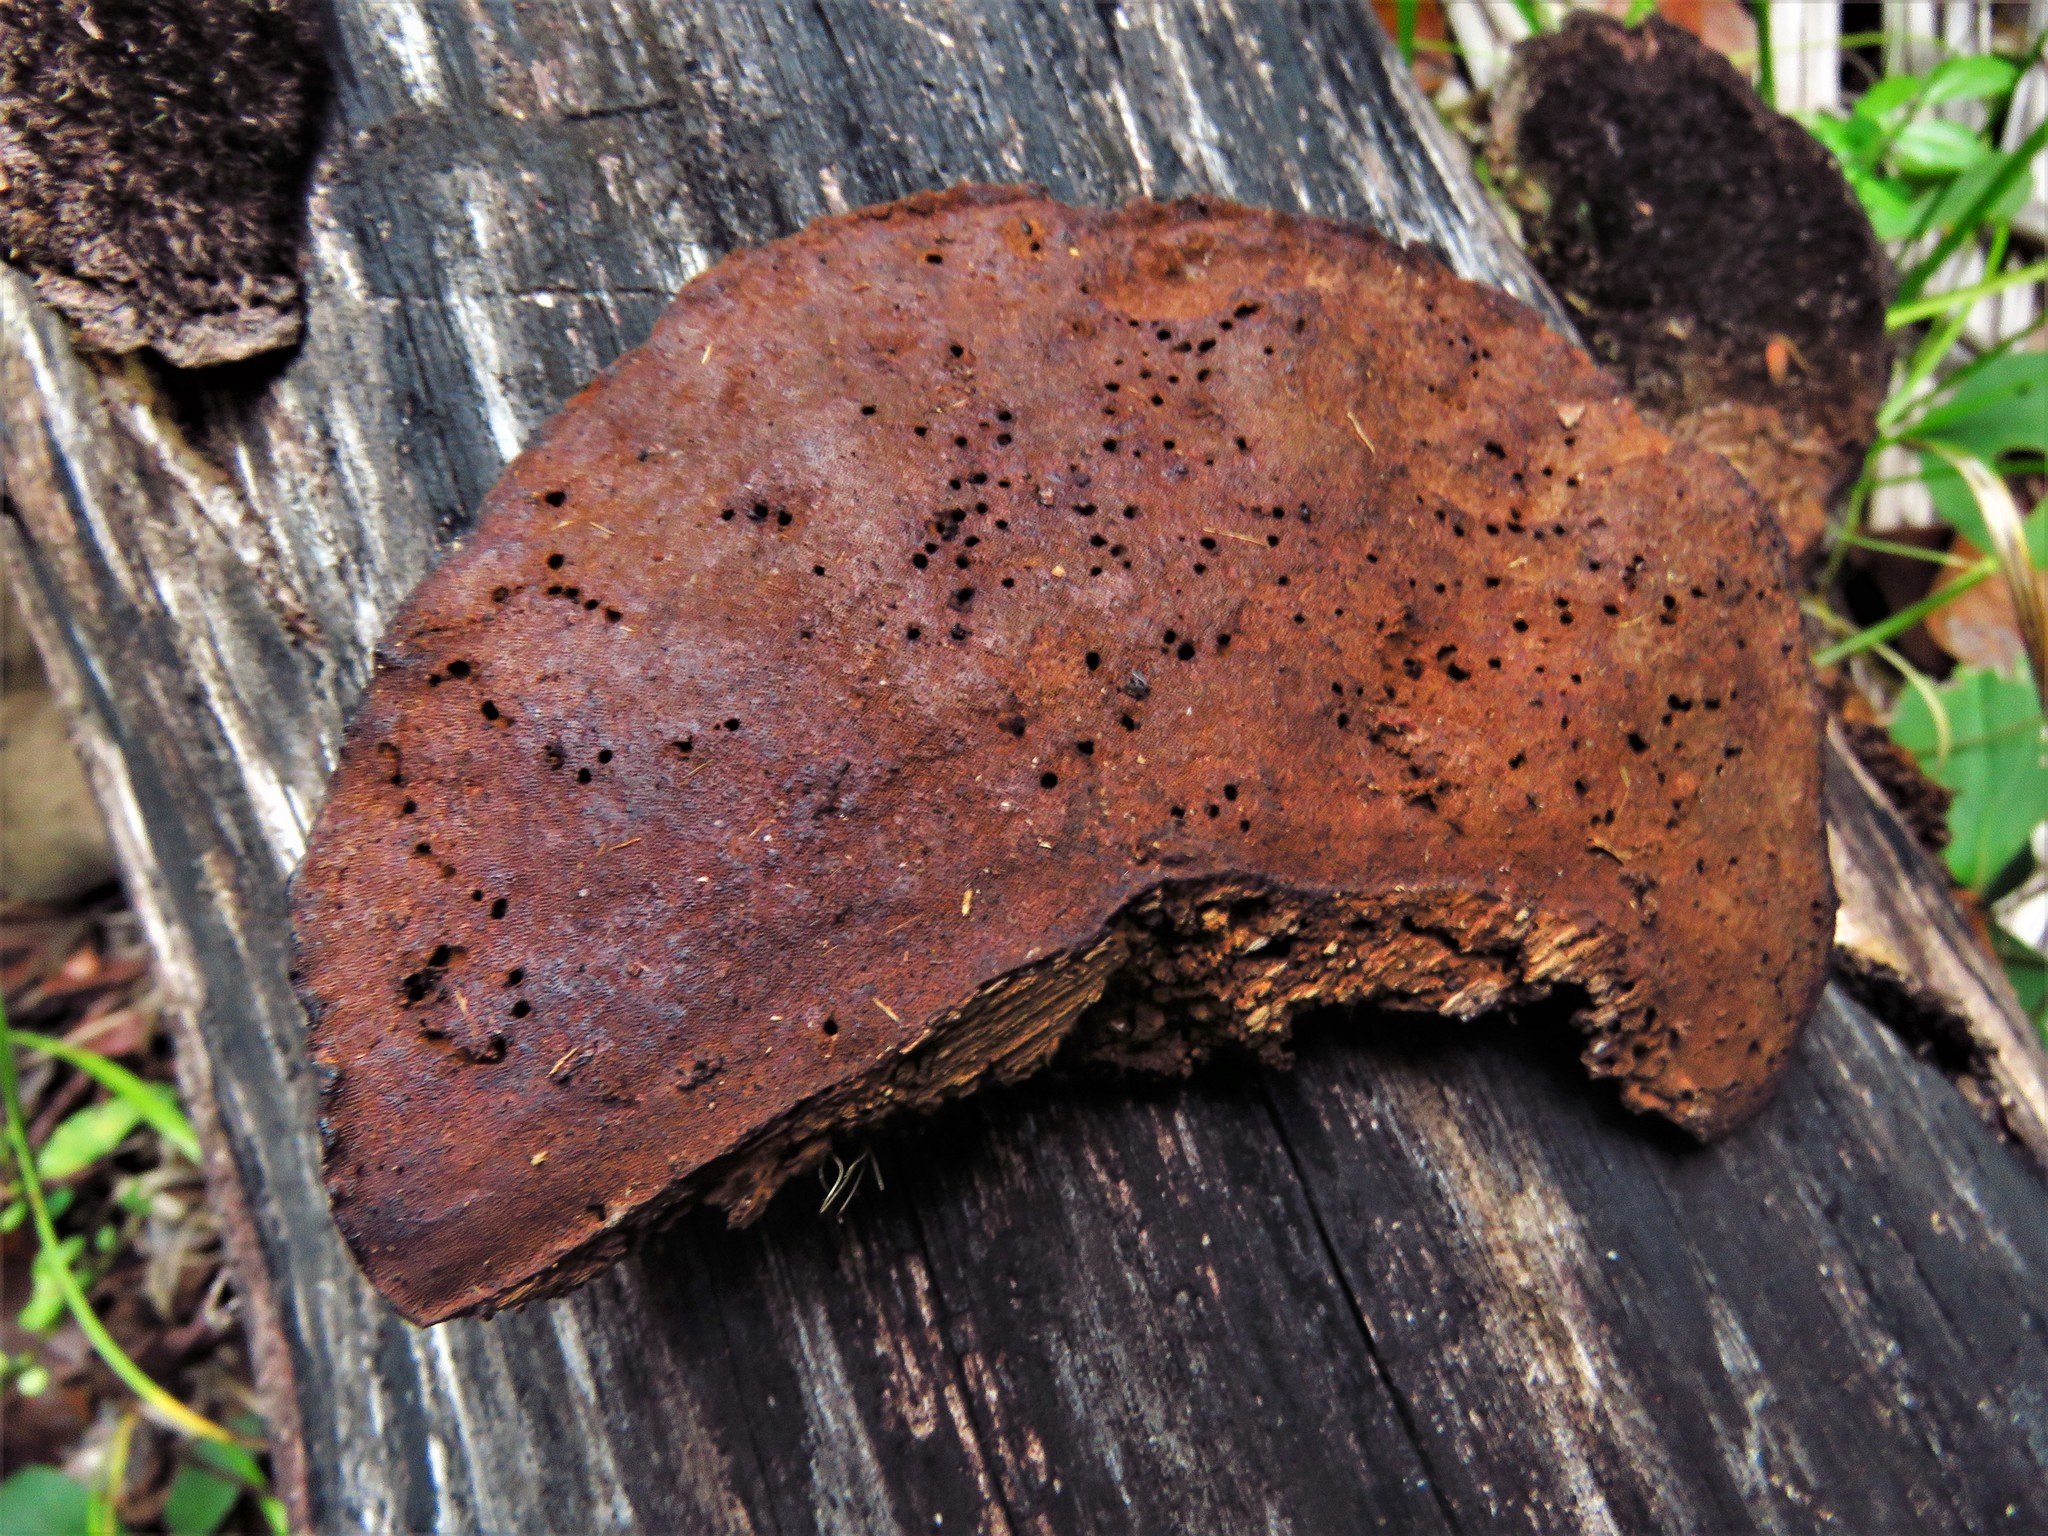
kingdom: Fungi
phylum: Basidiomycota
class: Agaricomycetes
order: Polyporales
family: Cerrenaceae
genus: Cerrena
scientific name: Cerrena hydnoides
